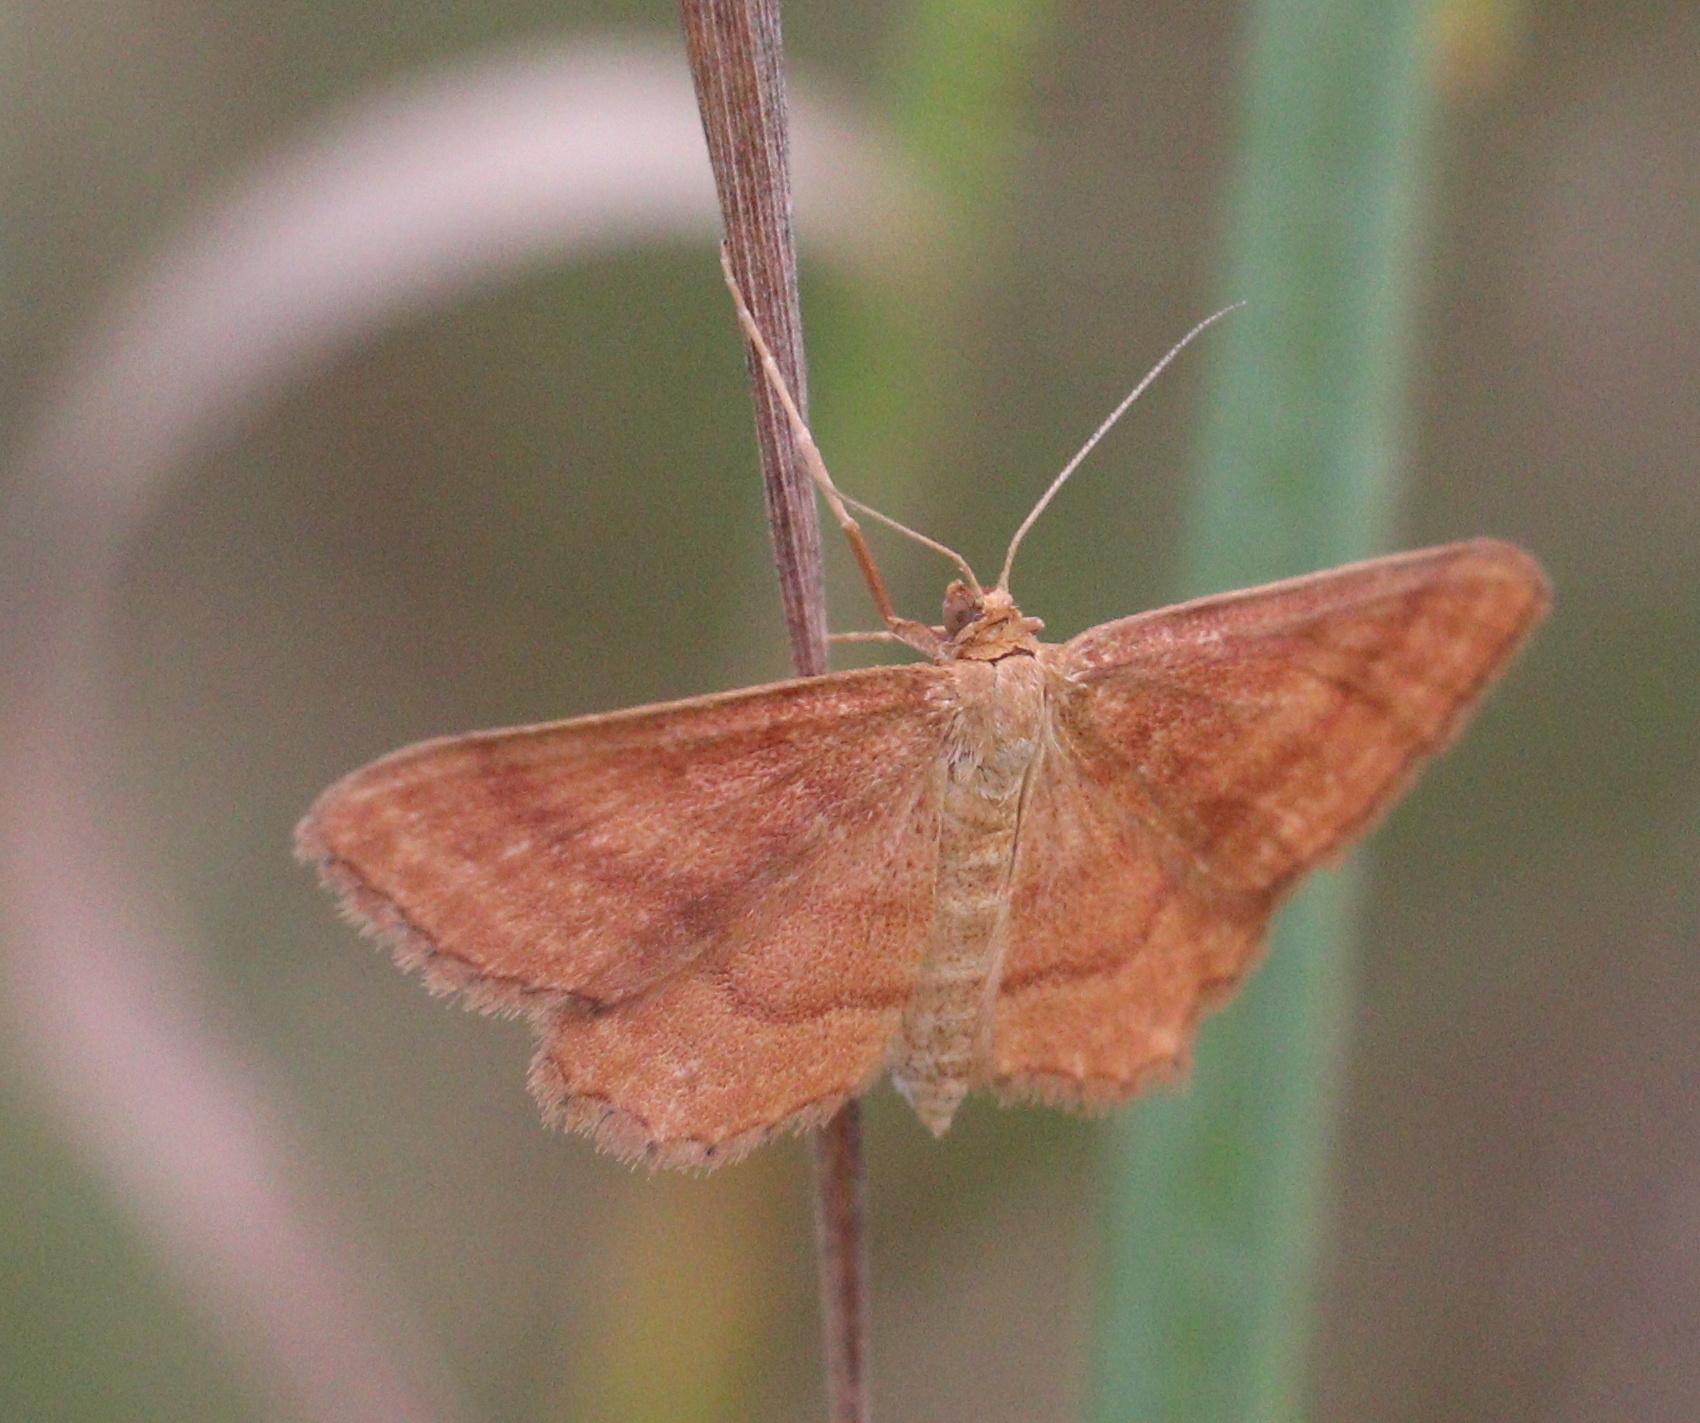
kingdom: Animalia
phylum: Arthropoda
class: Insecta
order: Lepidoptera
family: Geometridae
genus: Idaea
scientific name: Idaea ochrata
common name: Bright wave
